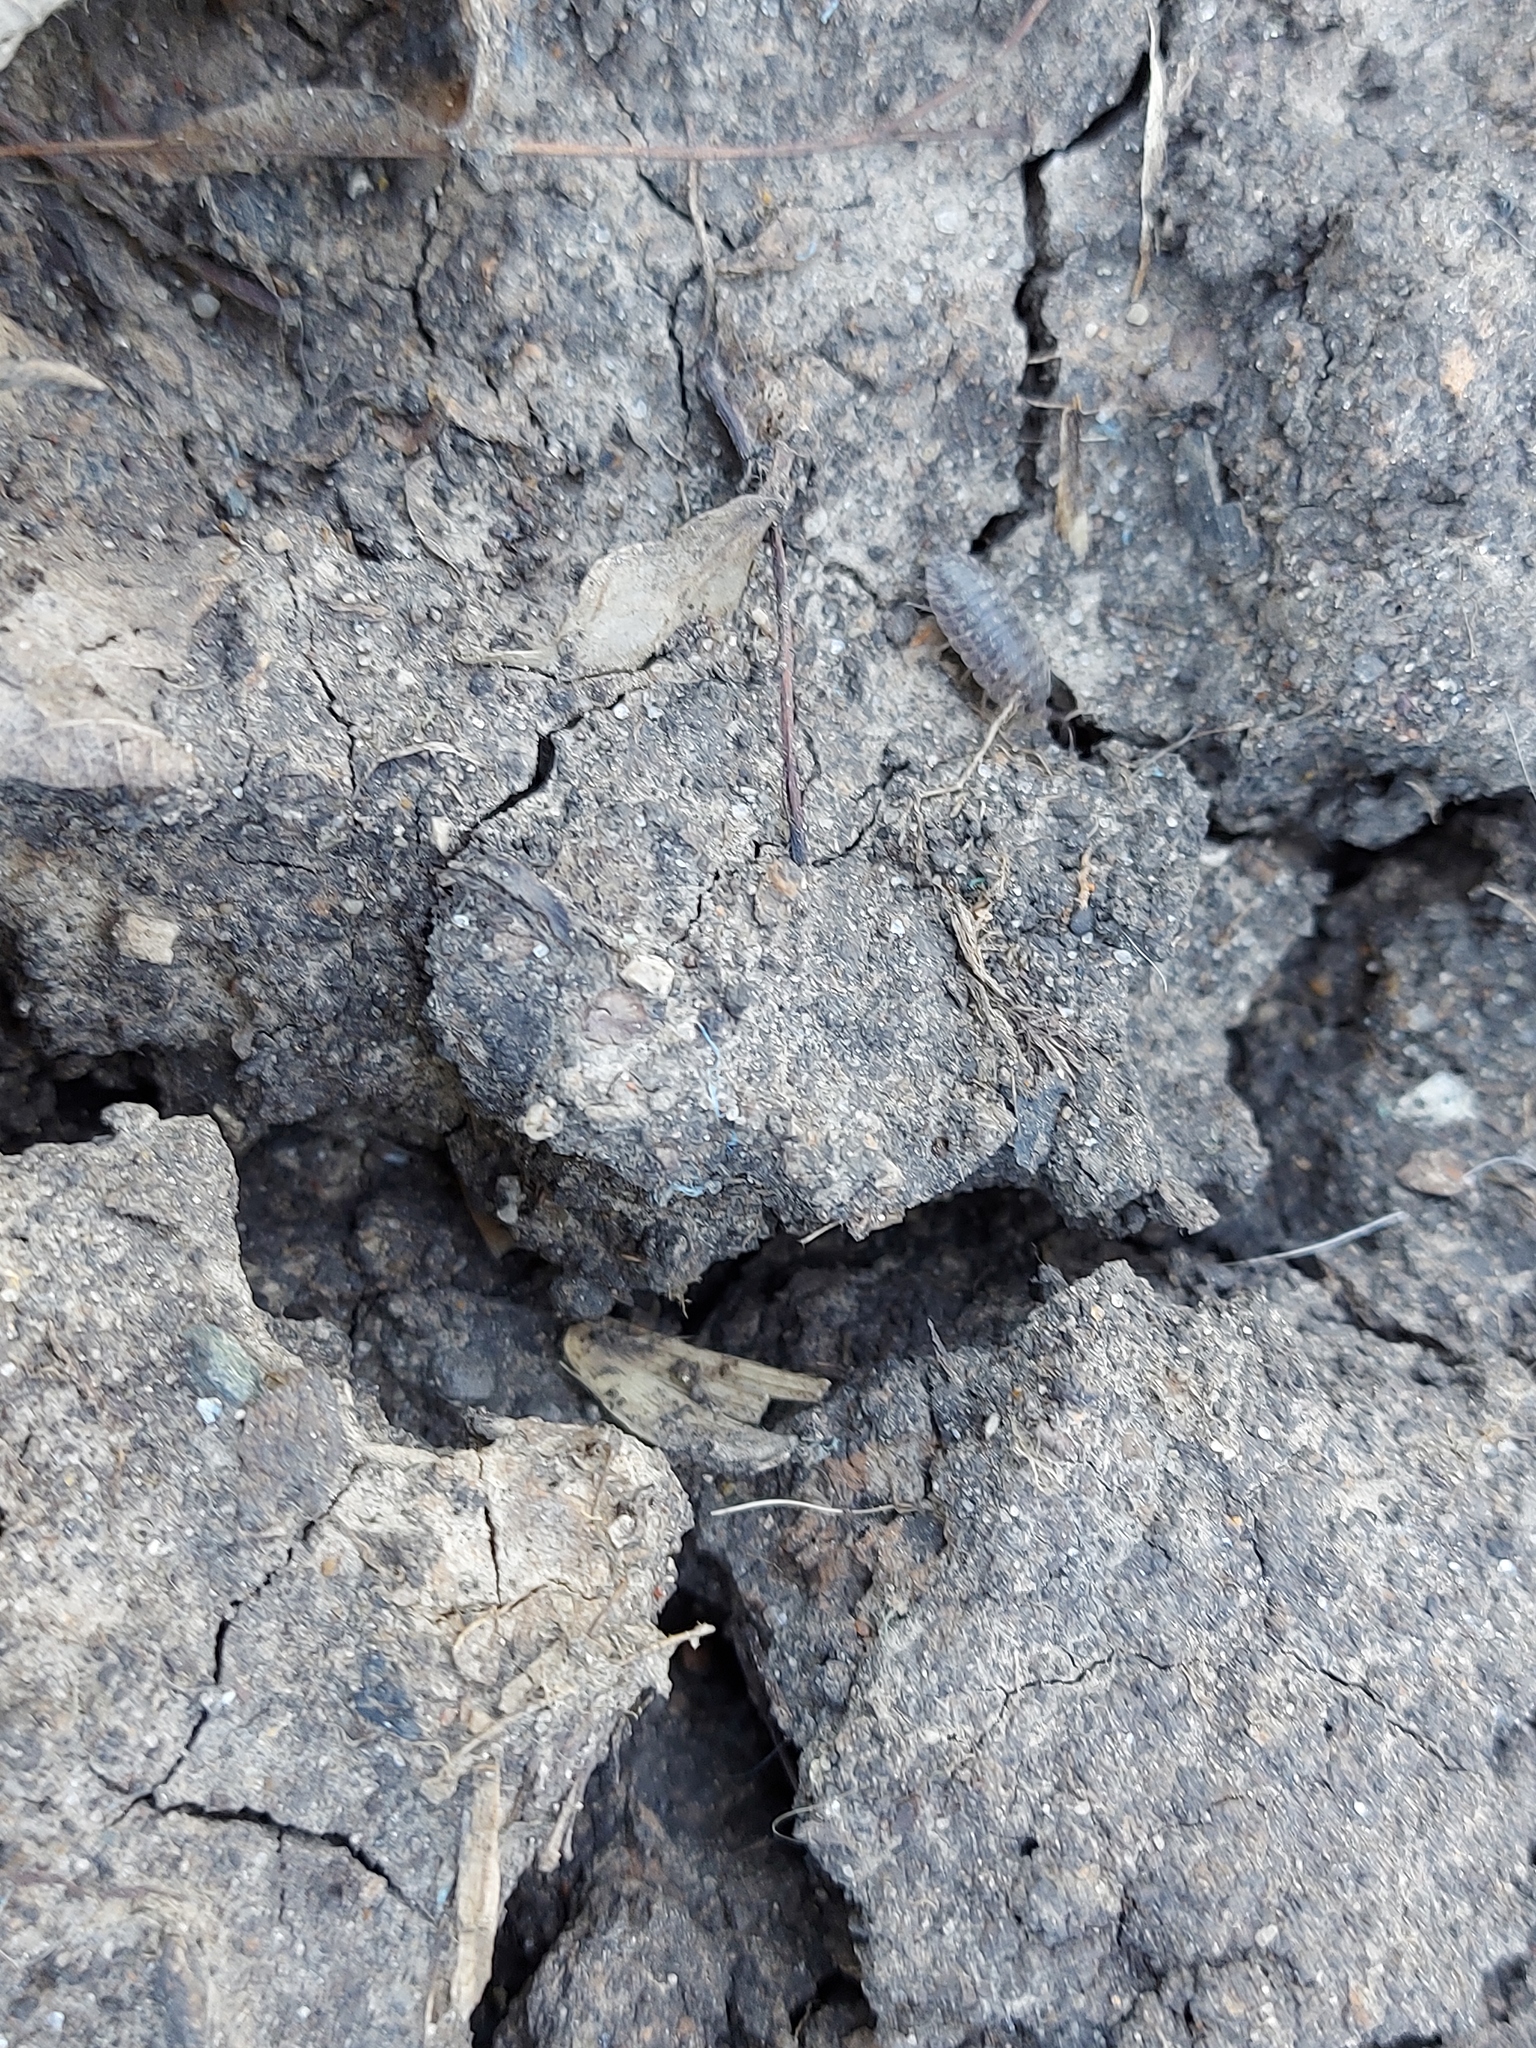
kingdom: Animalia
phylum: Arthropoda
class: Malacostraca
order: Isopoda
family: Trachelipodidae
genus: Trachelipus
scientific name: Trachelipus rathkii
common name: Isopod
